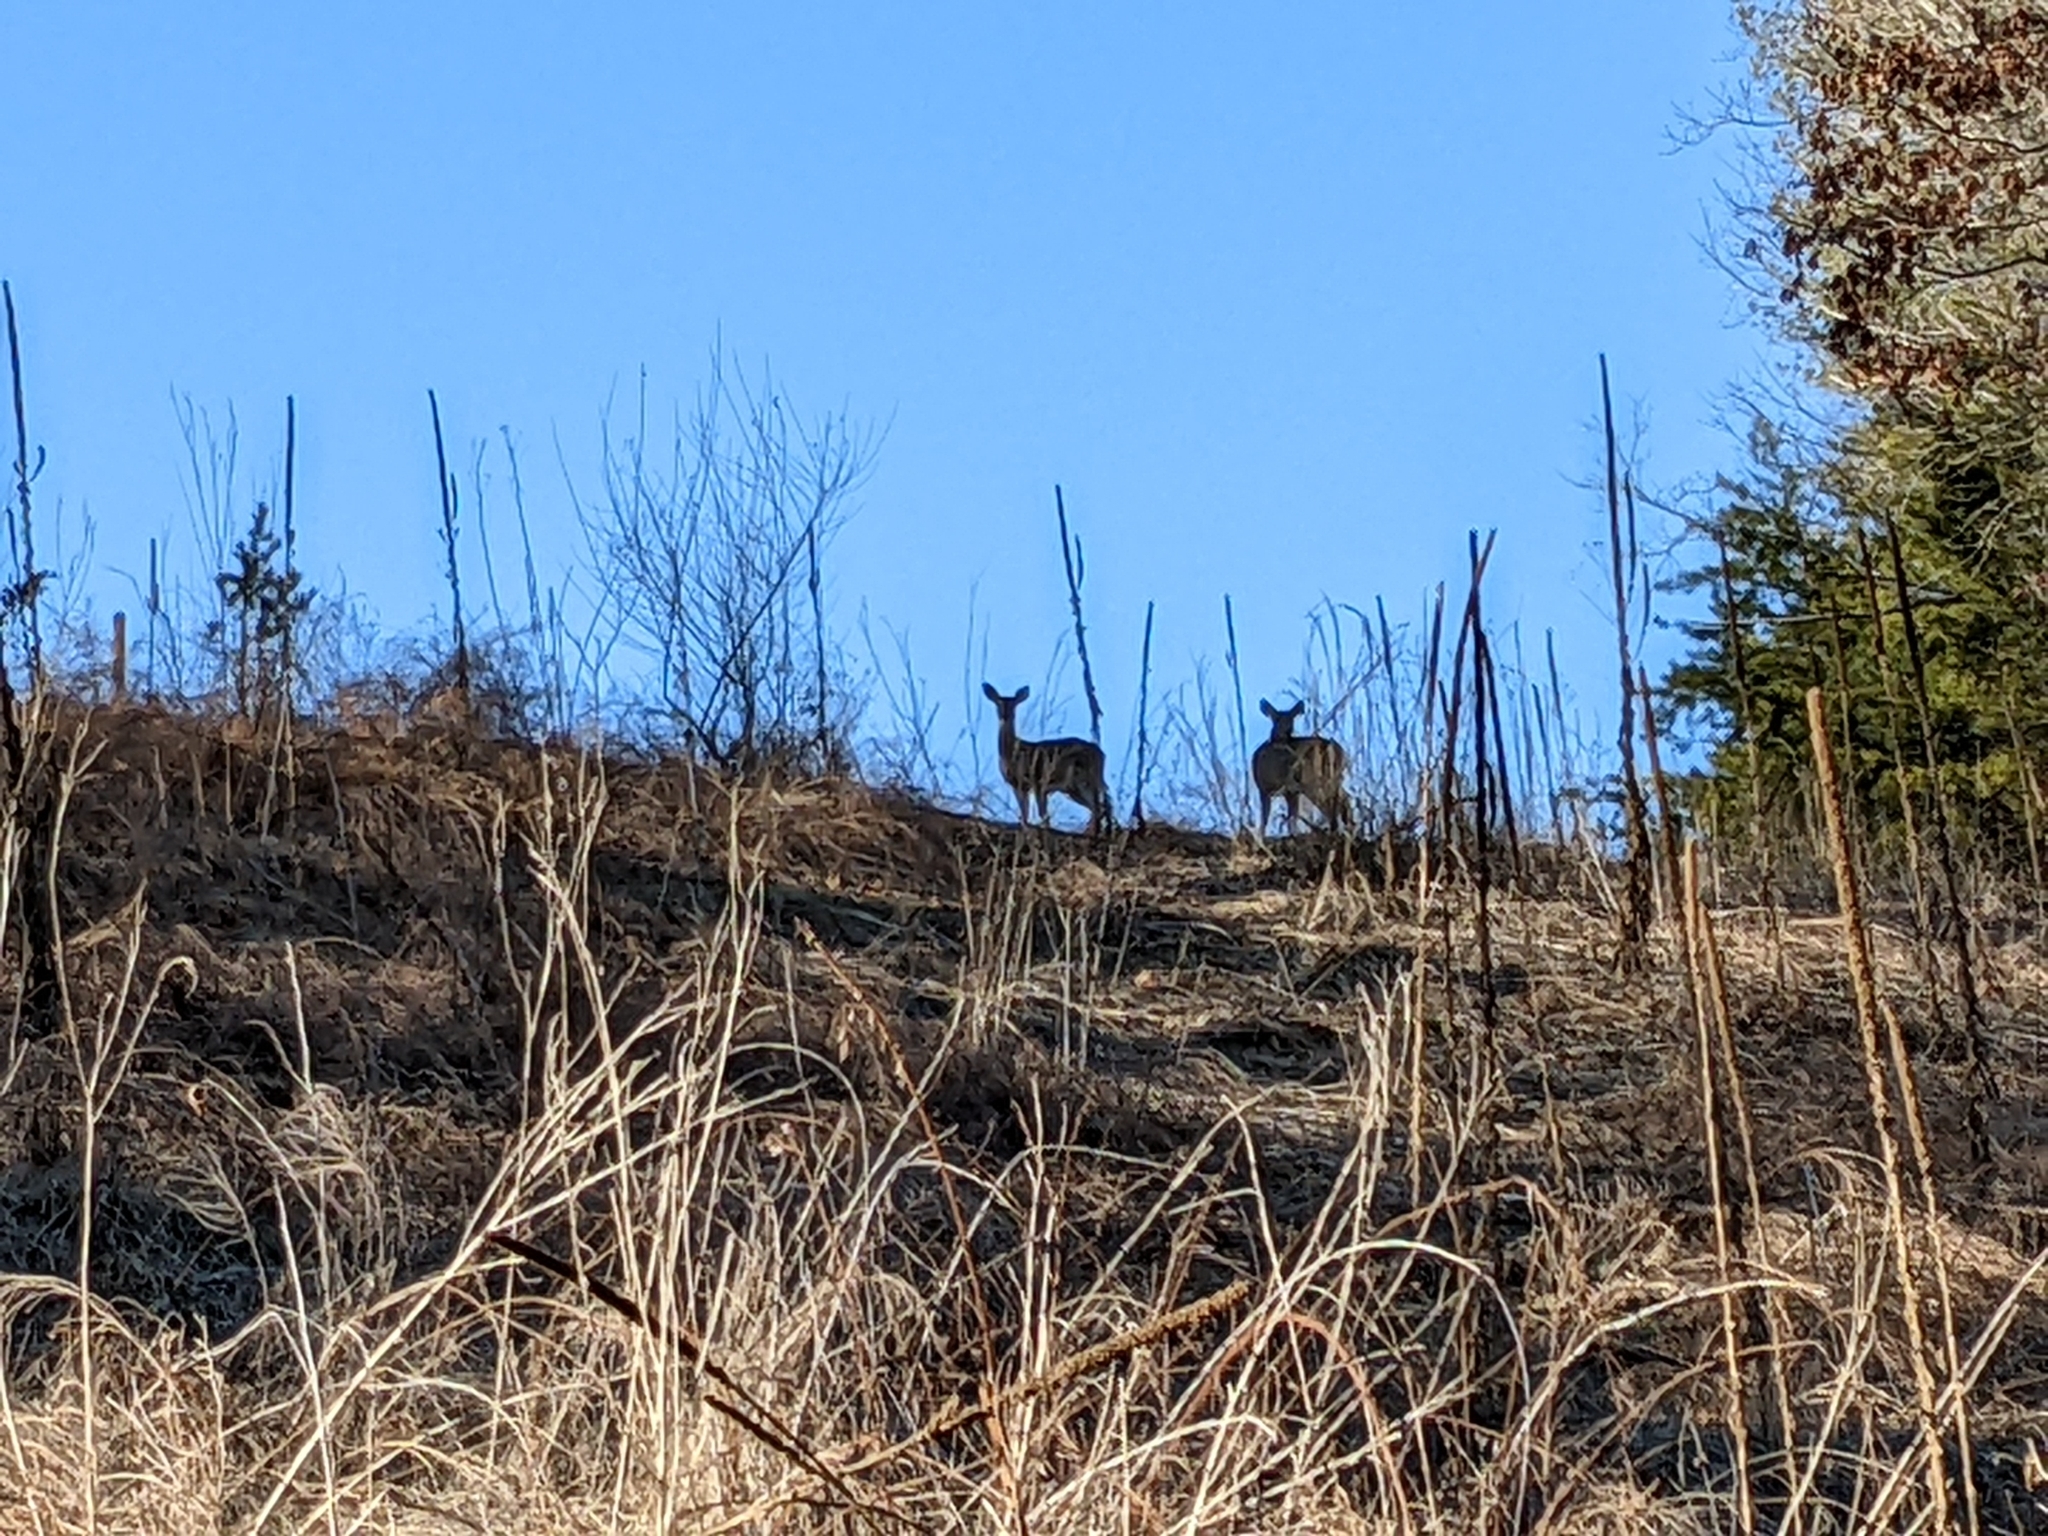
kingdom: Animalia
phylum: Chordata
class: Mammalia
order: Artiodactyla
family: Cervidae
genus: Odocoileus
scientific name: Odocoileus virginianus
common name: White-tailed deer
